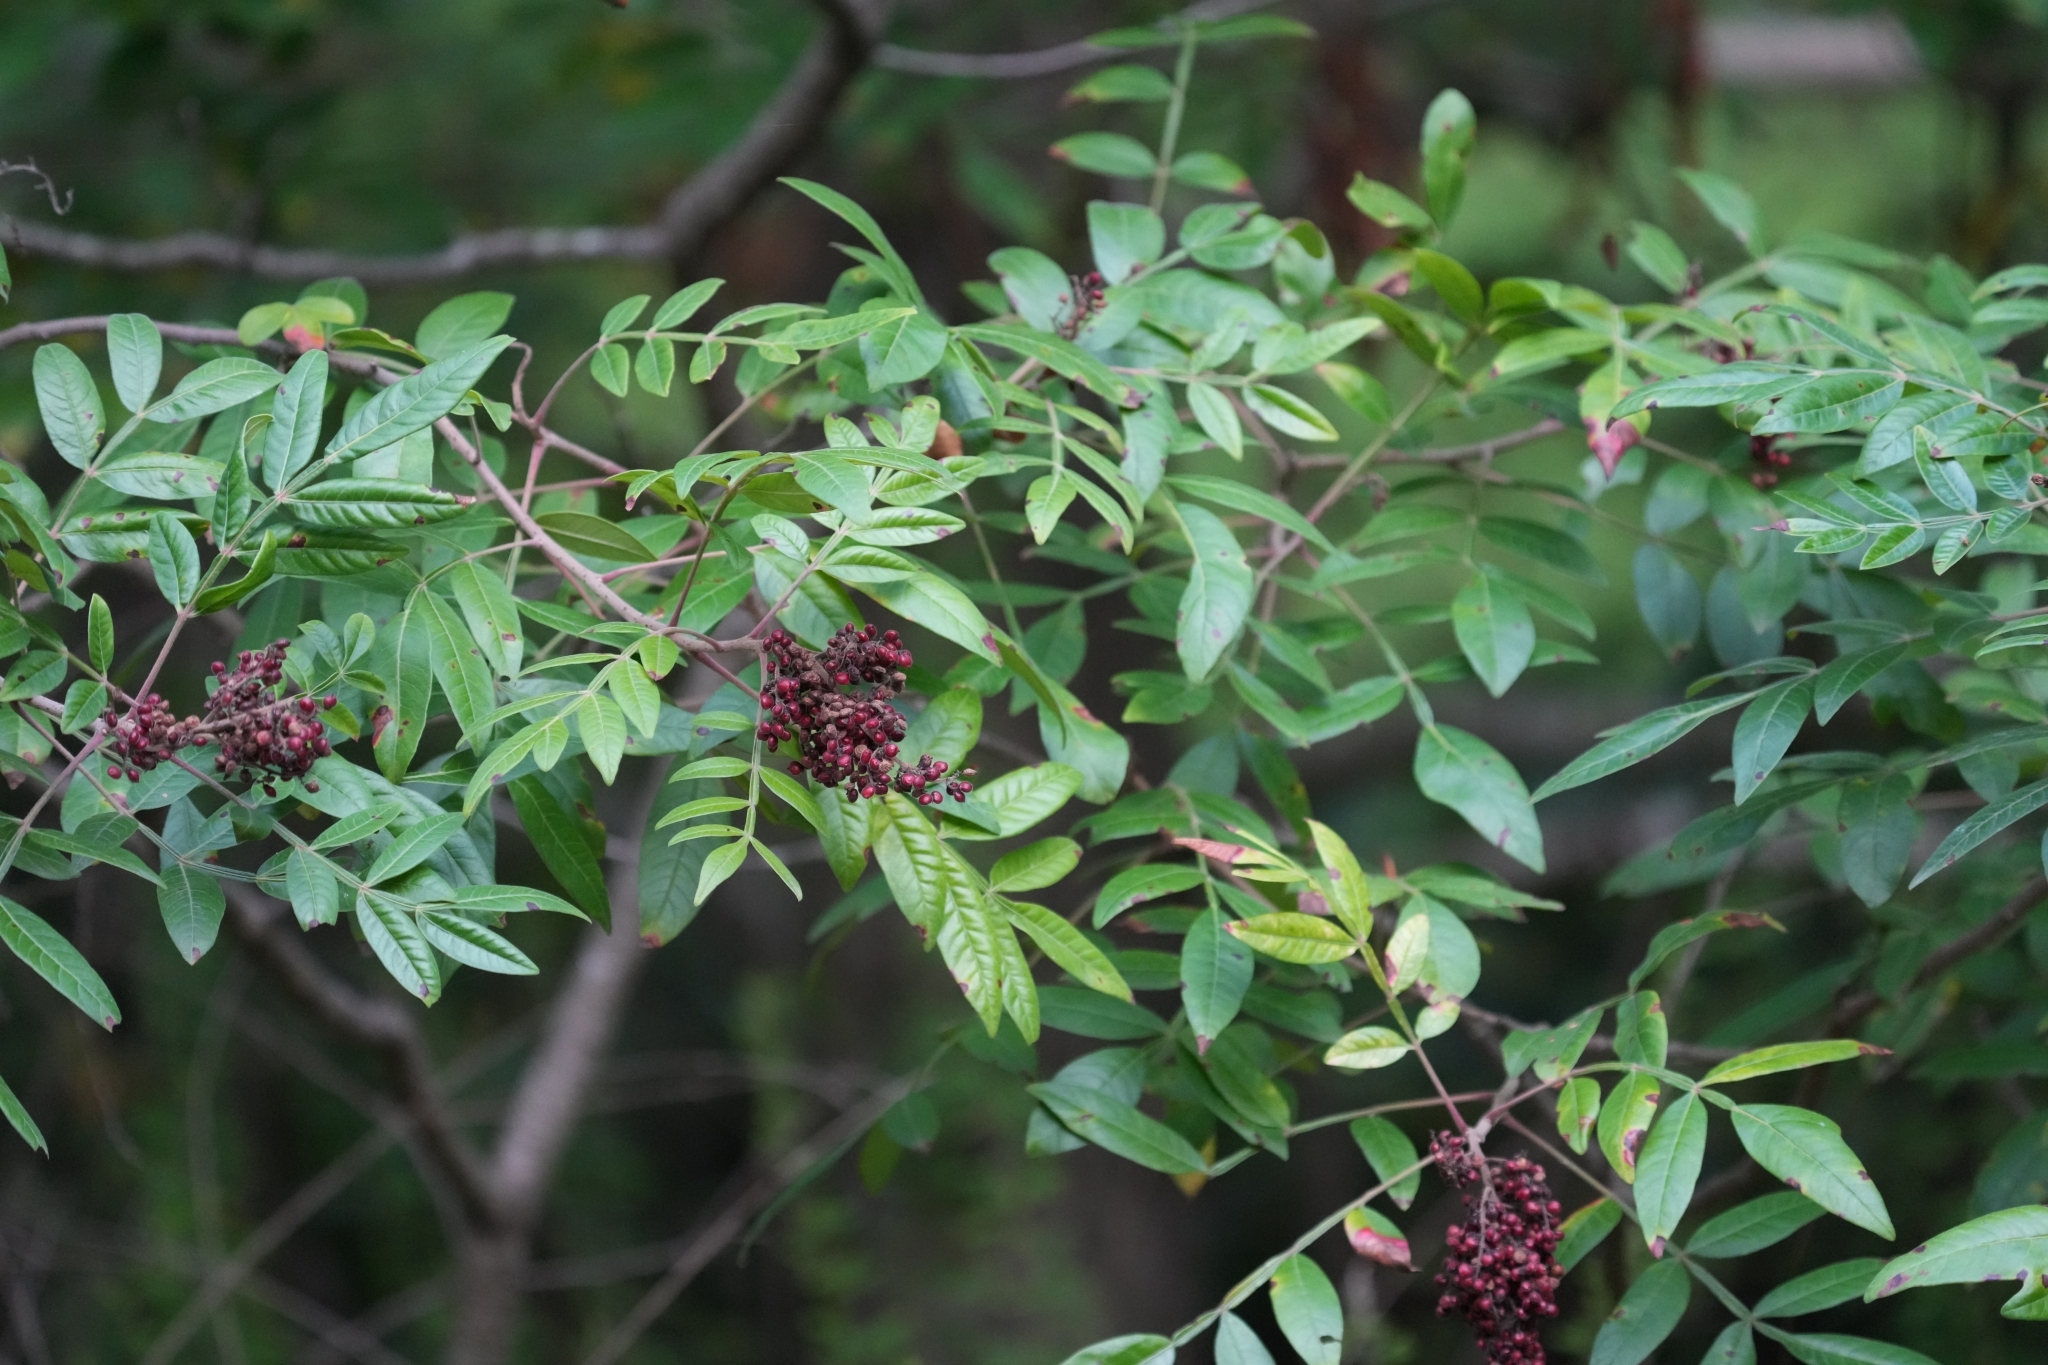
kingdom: Plantae
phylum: Tracheophyta
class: Magnoliopsida
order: Sapindales
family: Anacardiaceae
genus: Rhus
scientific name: Rhus copallina
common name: Shining sumac
